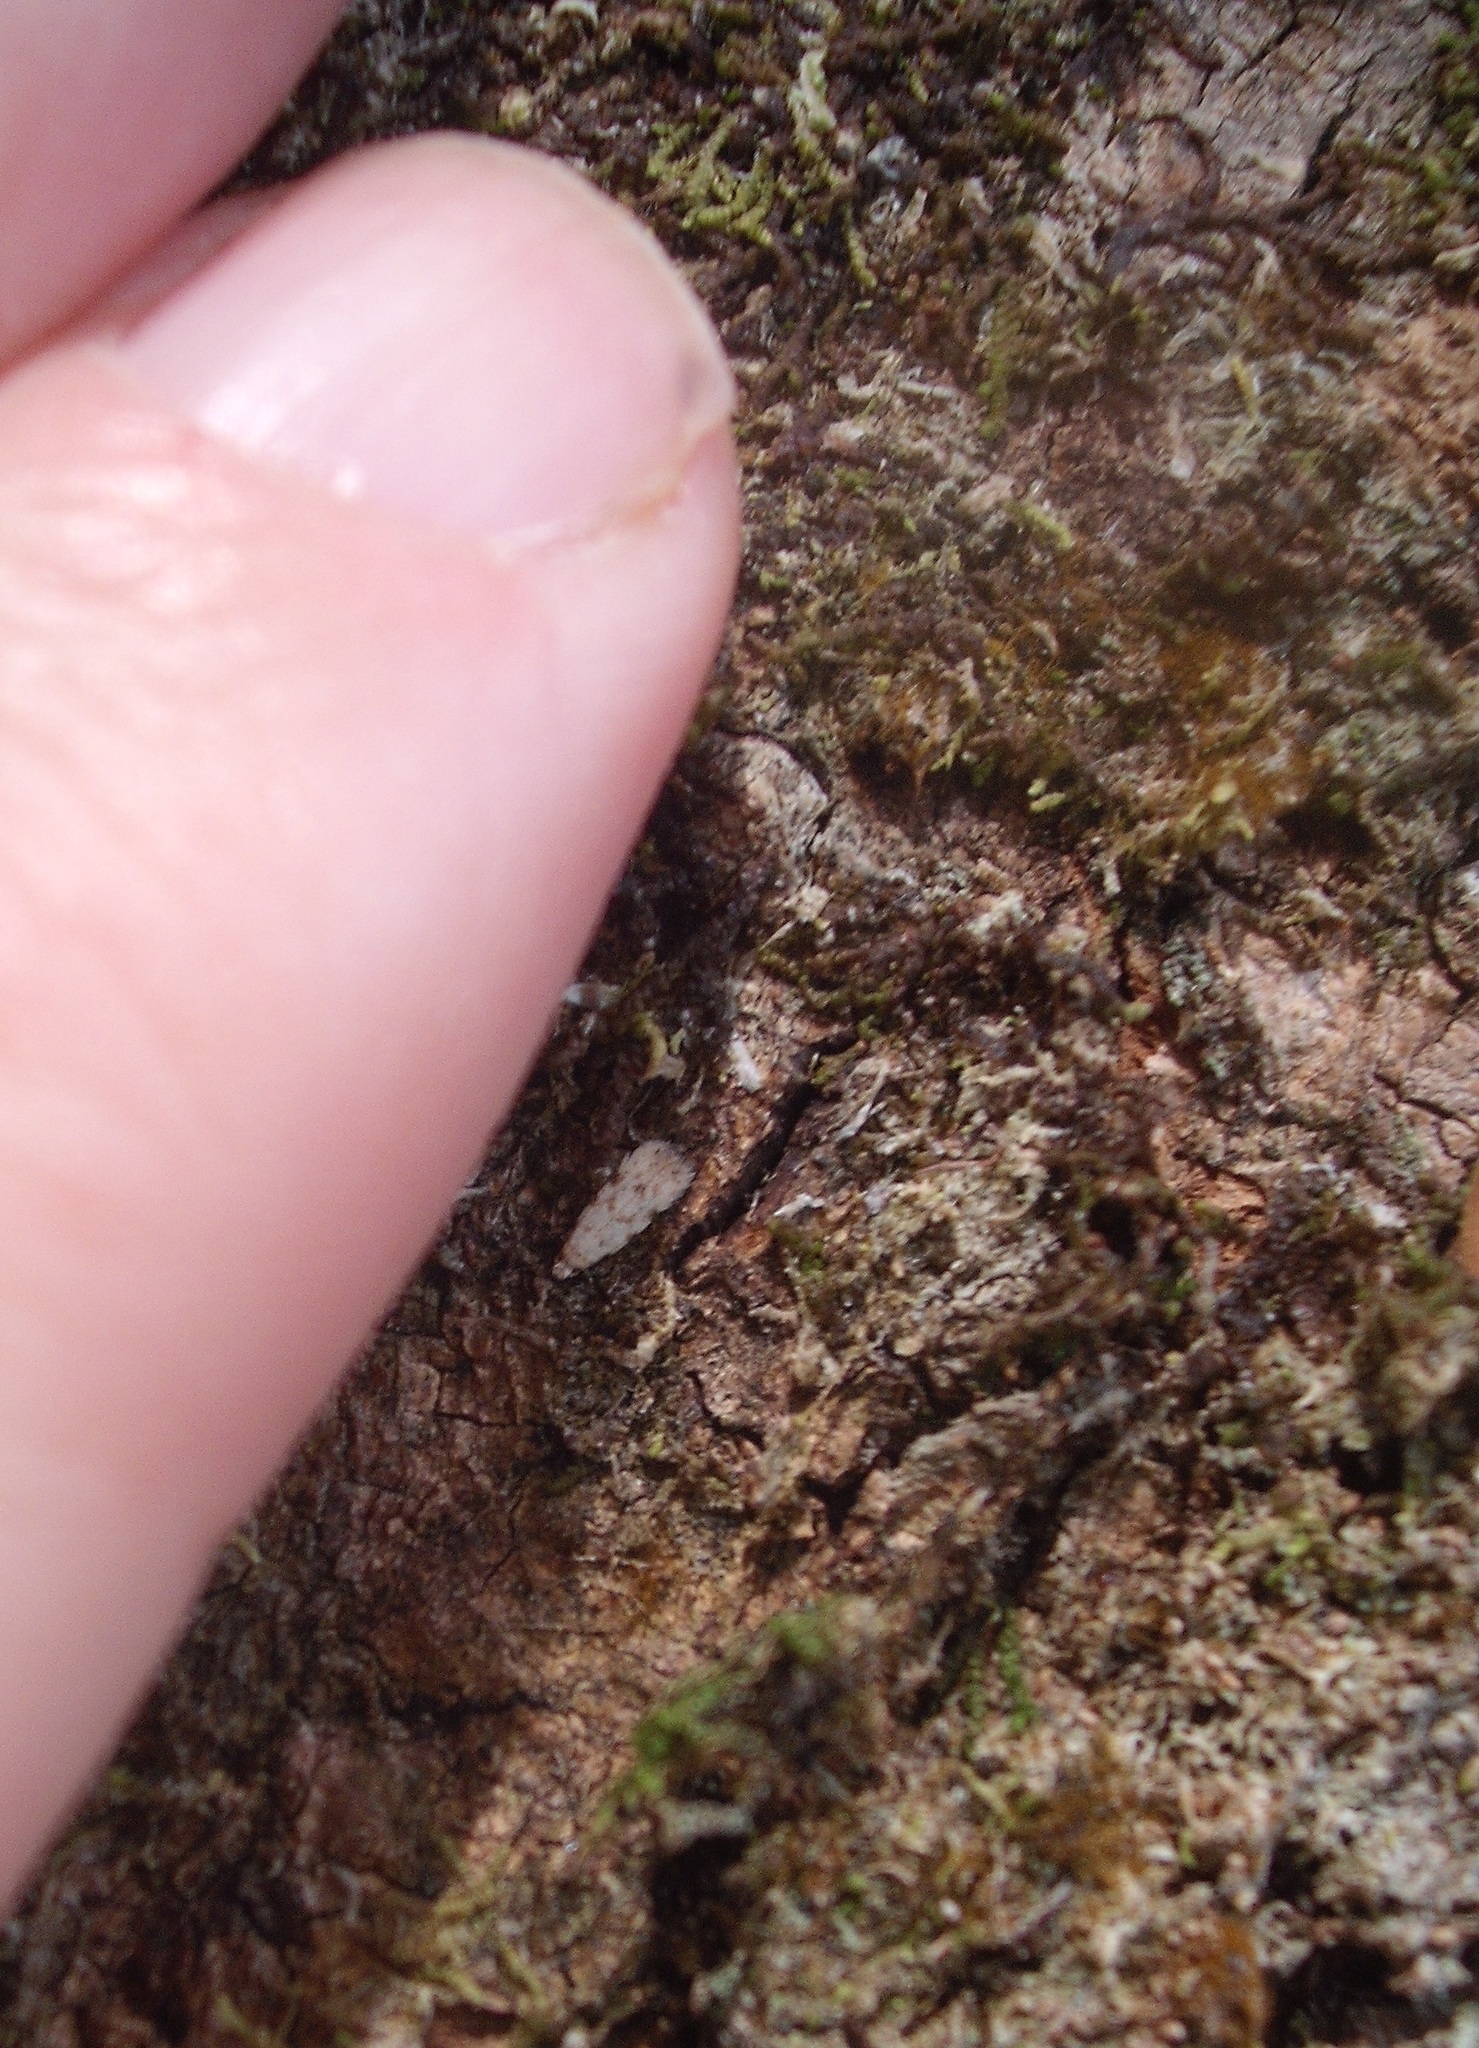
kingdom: Animalia
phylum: Arthropoda
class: Insecta
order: Lepidoptera
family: Tineidae
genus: Endophthora
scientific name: Endophthora omogramma
